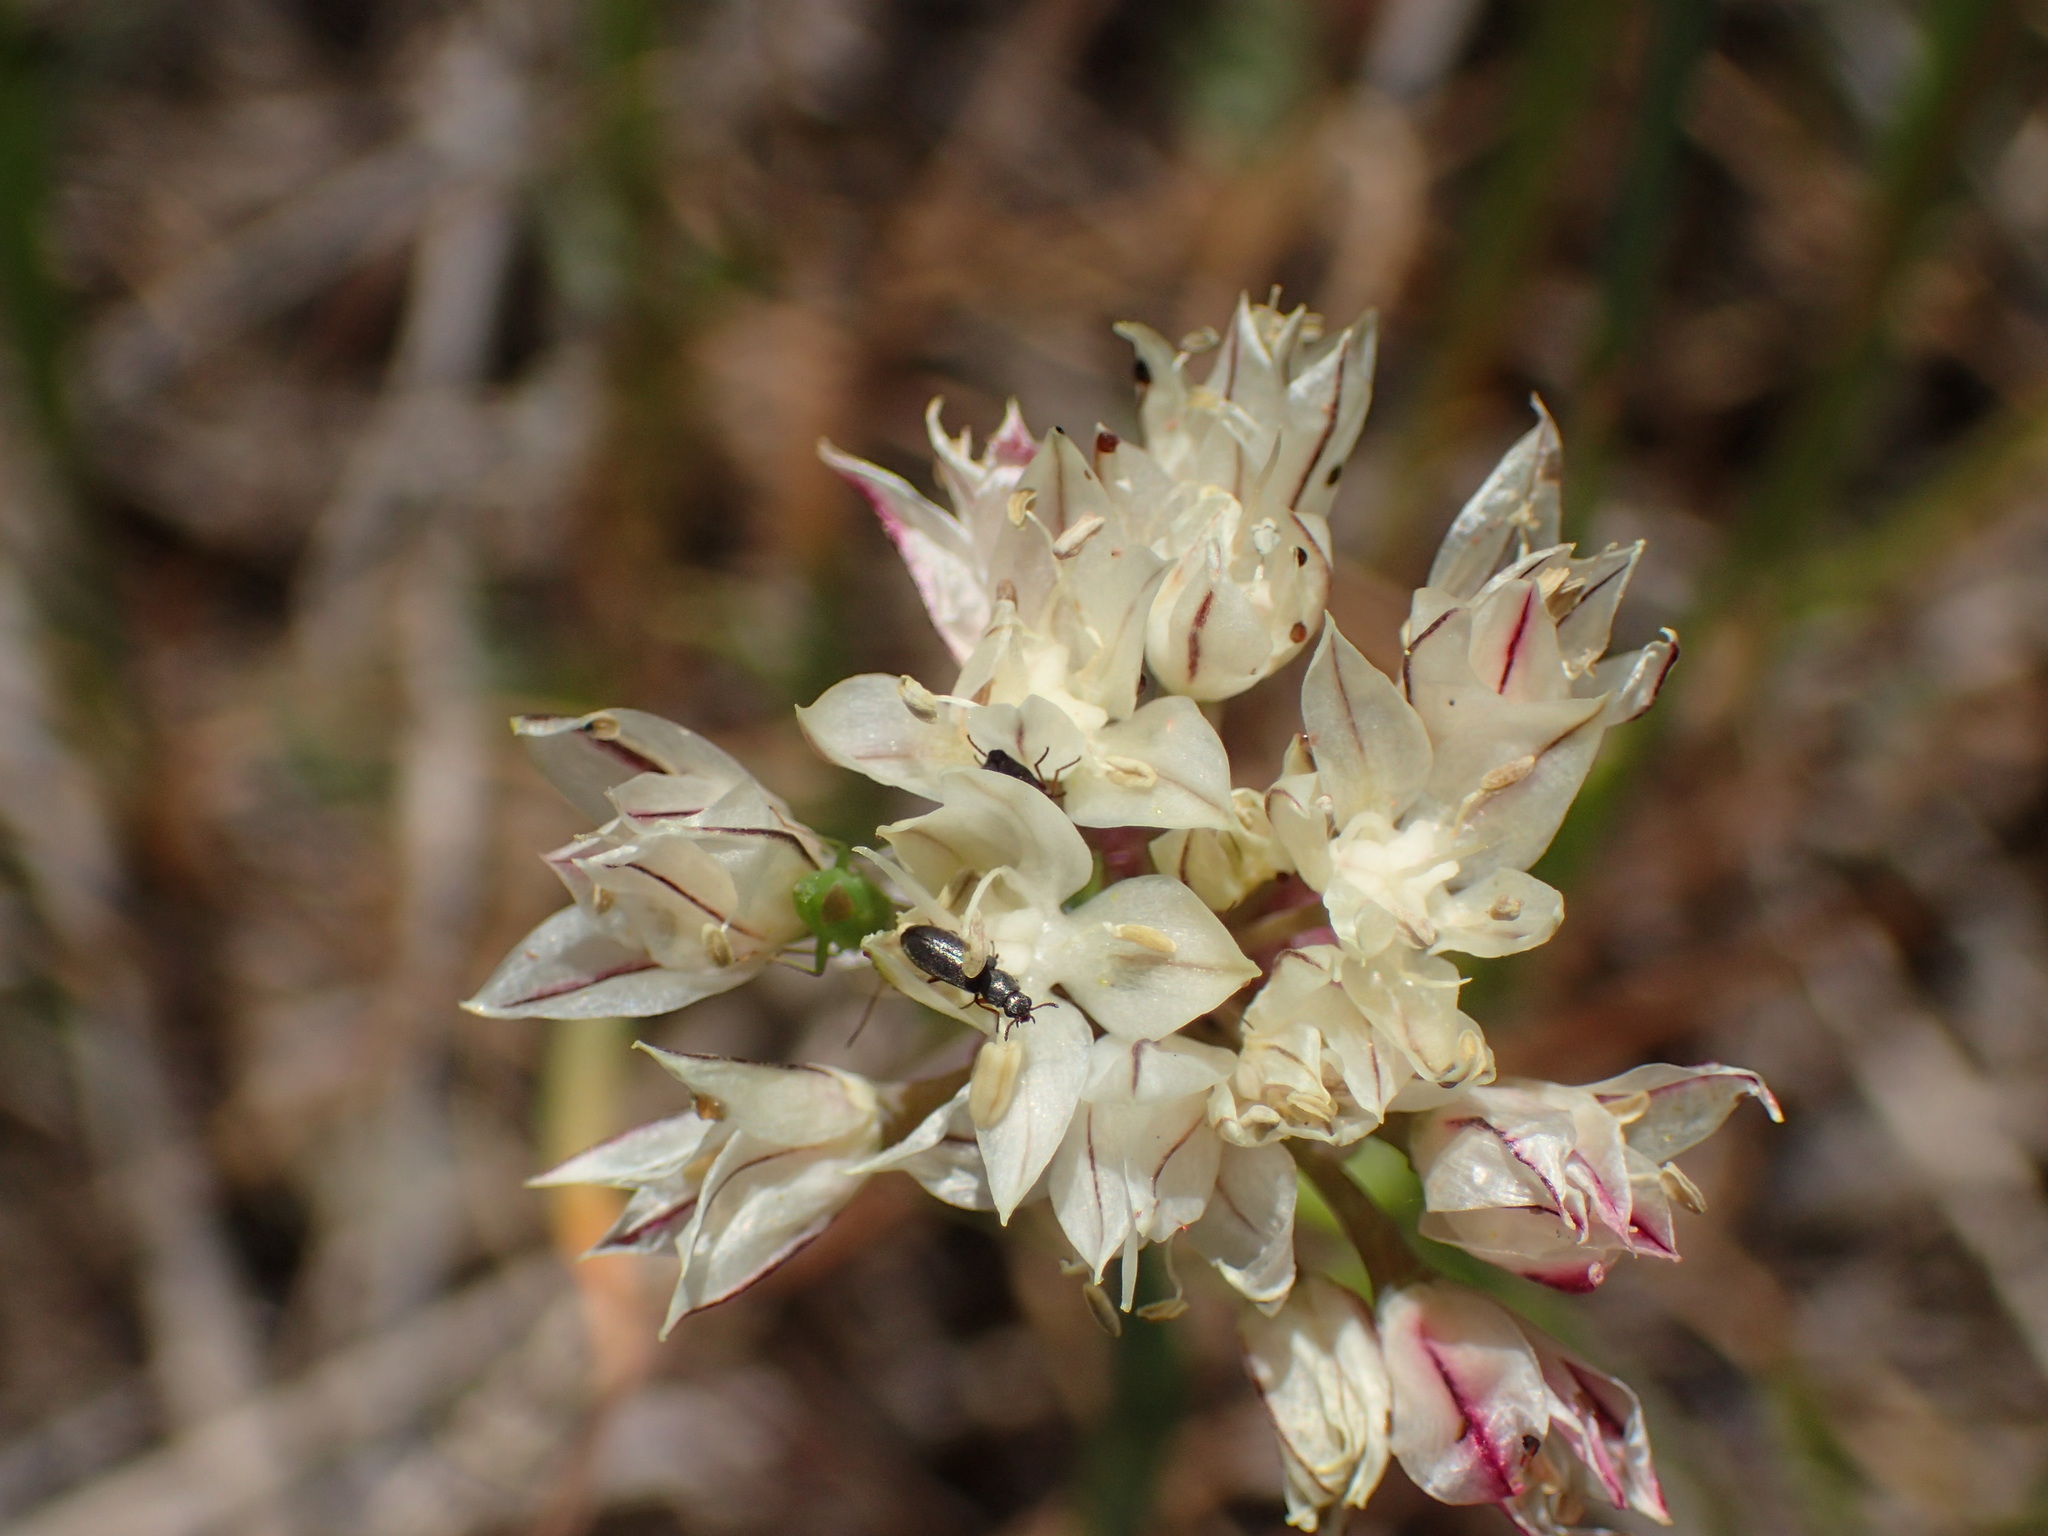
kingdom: Plantae
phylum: Tracheophyta
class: Liliopsida
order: Asparagales
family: Amaryllidaceae
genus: Allium
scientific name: Allium haematochiton
